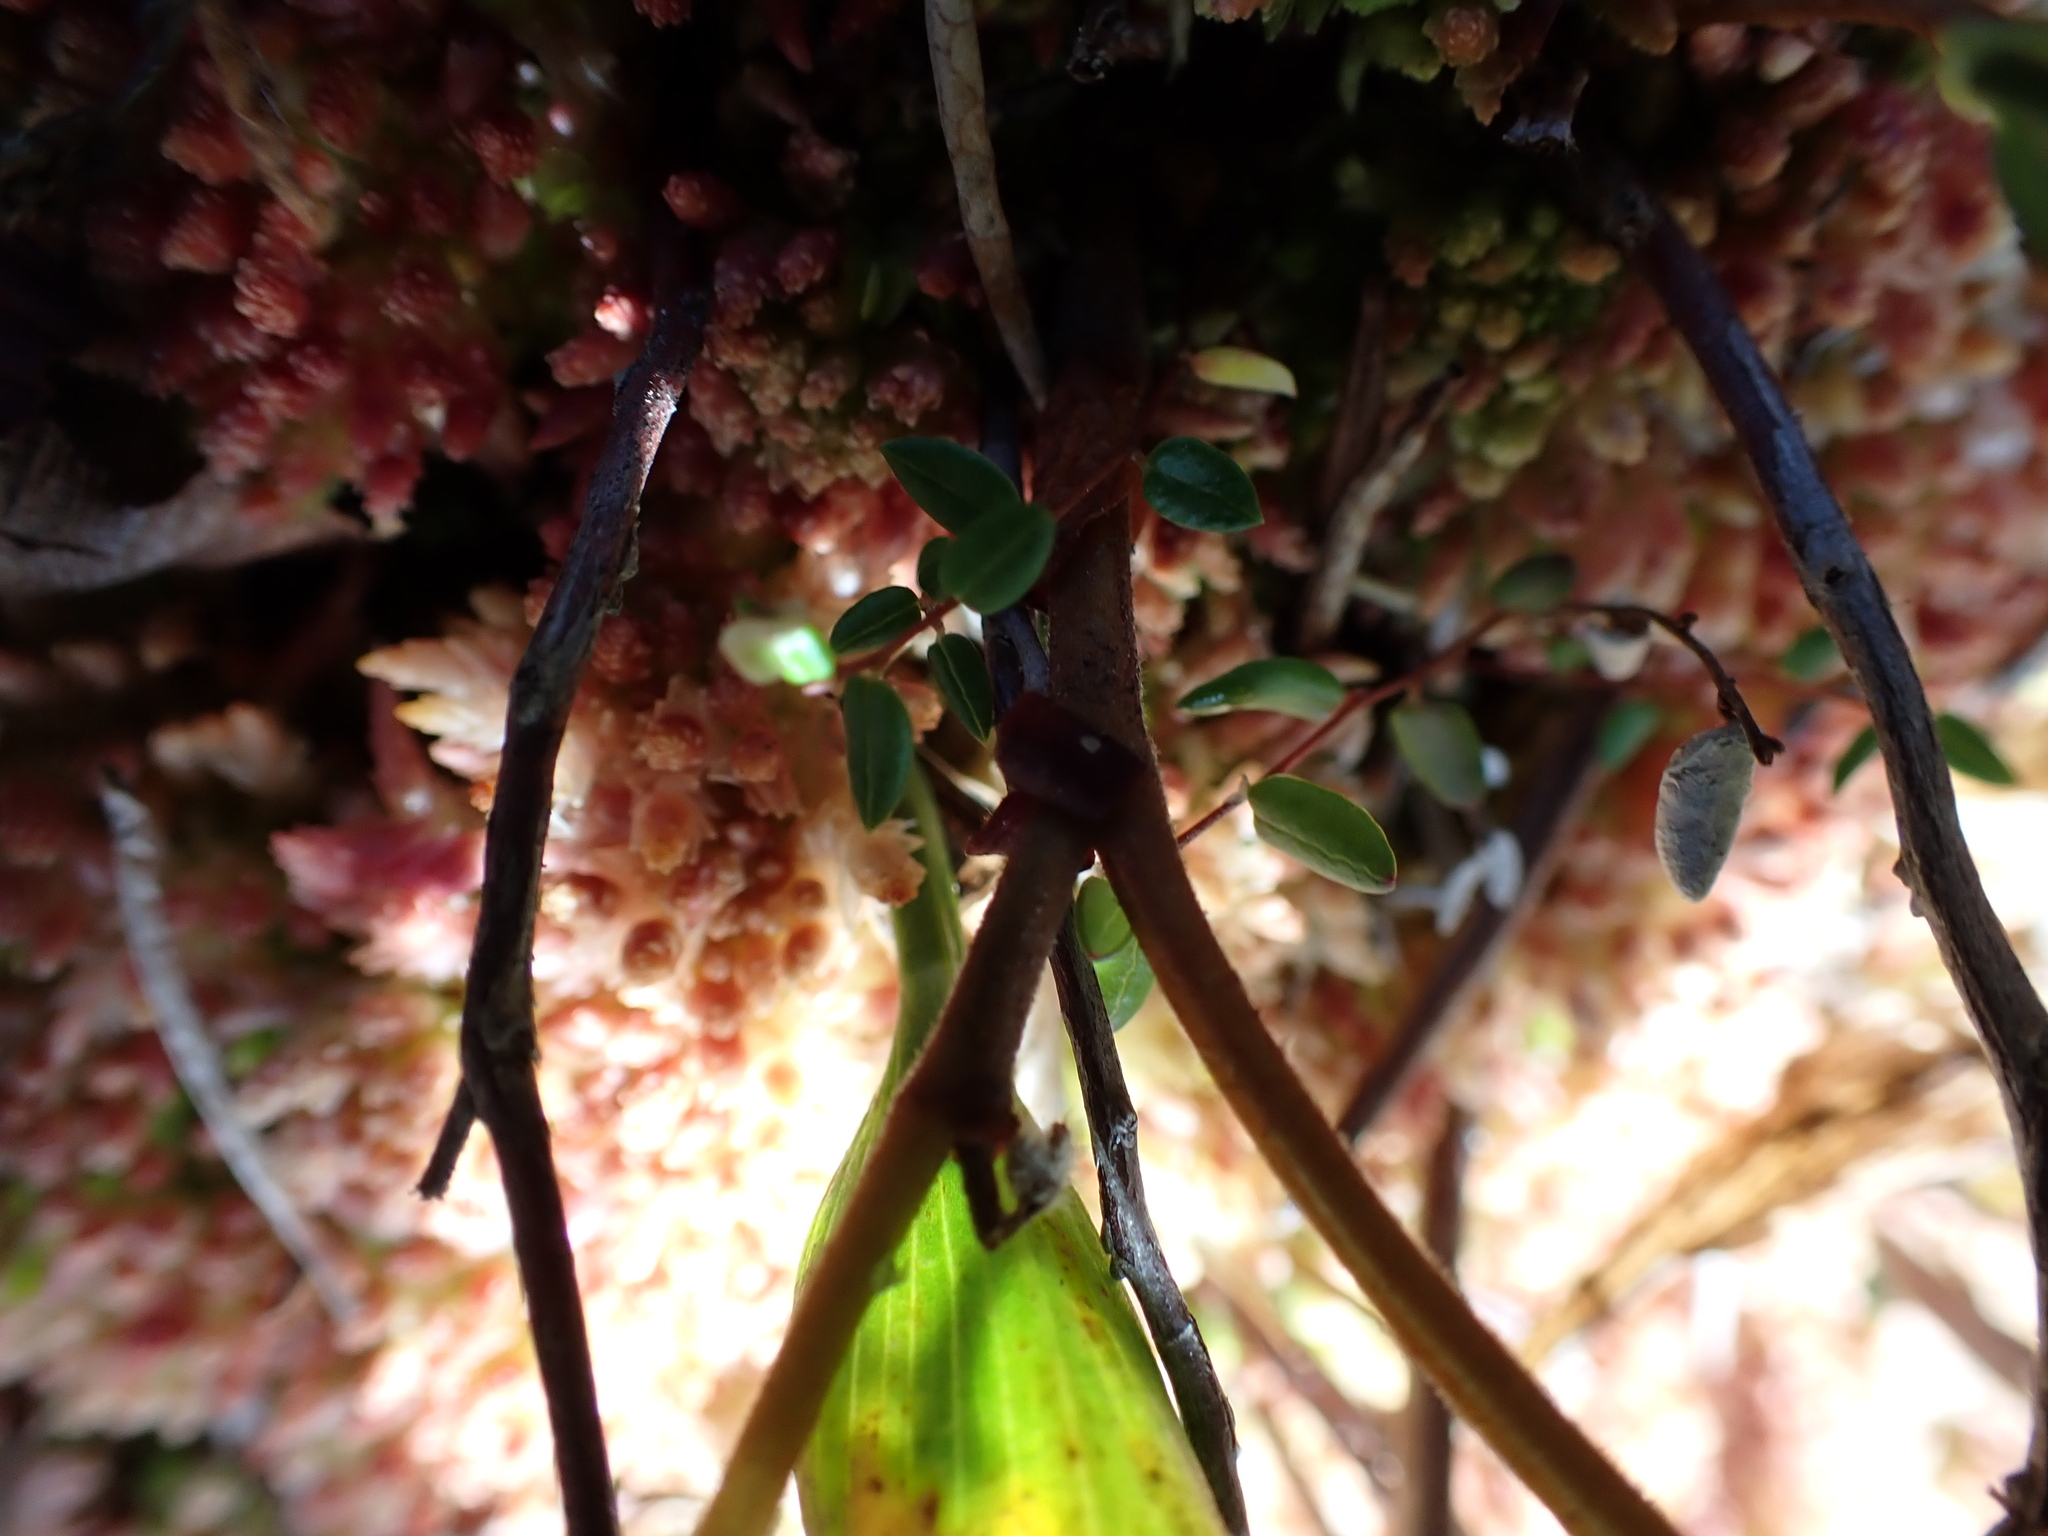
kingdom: Plantae
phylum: Tracheophyta
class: Magnoliopsida
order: Ericales
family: Ericaceae
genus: Vaccinium
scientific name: Vaccinium oxycoccos
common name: Cranberry
